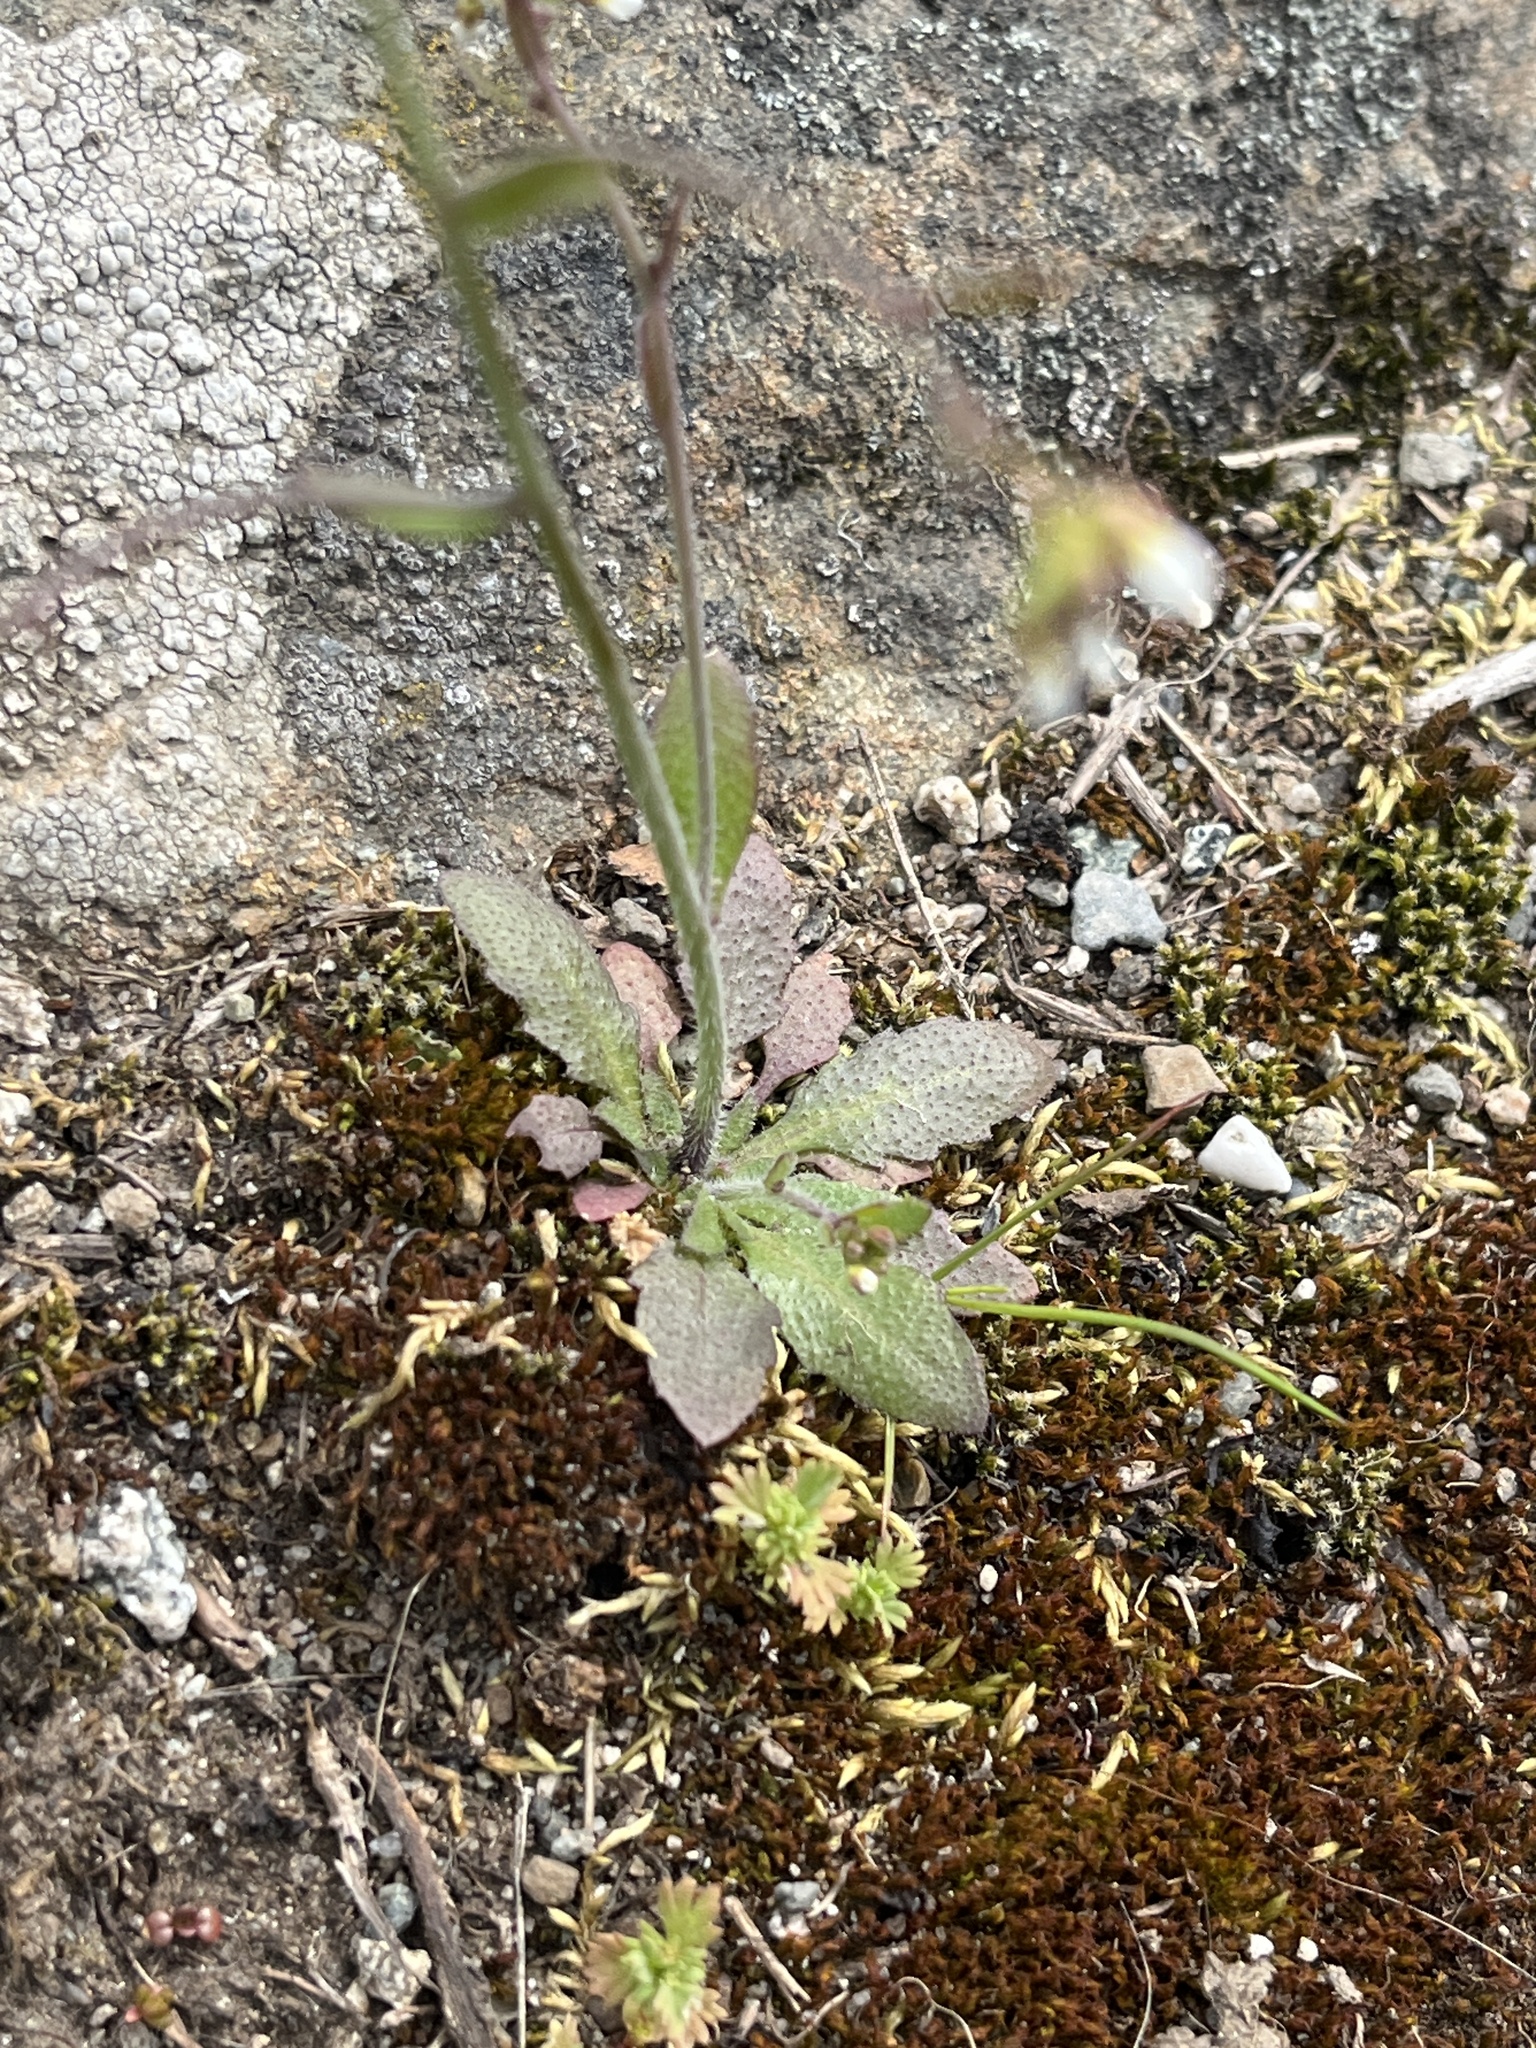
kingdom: Plantae
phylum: Tracheophyta
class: Magnoliopsida
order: Brassicales
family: Brassicaceae
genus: Arabidopsis
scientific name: Arabidopsis thaliana
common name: Thale cress
